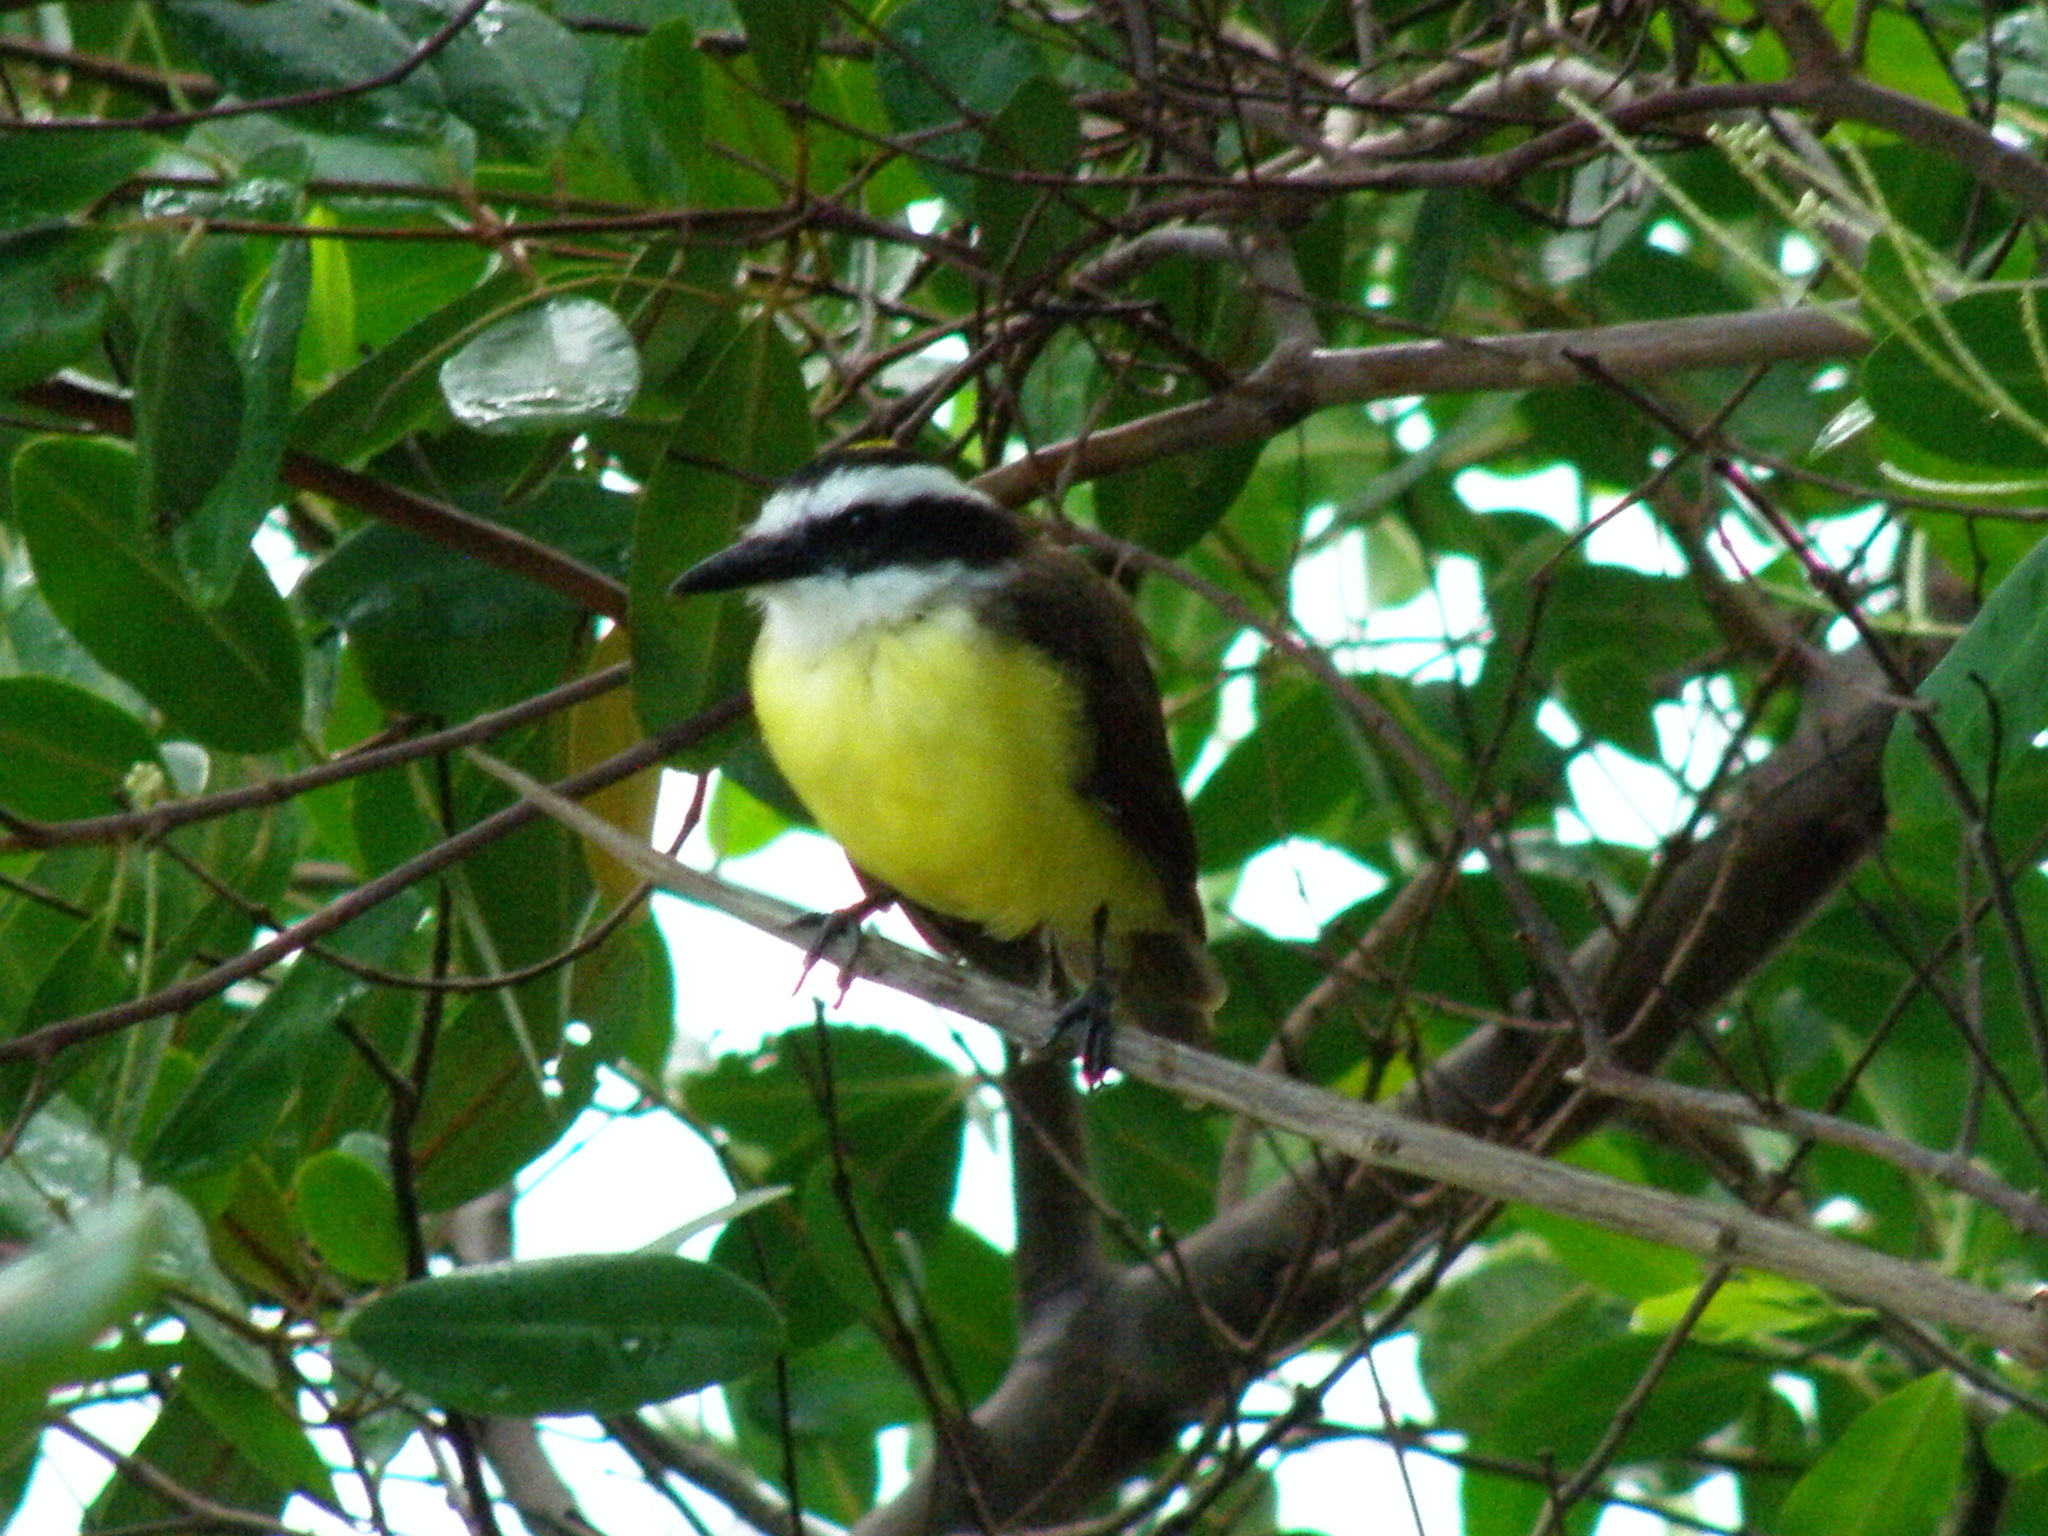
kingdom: Animalia
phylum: Chordata
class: Aves
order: Passeriformes
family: Tyrannidae
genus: Pitangus
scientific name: Pitangus sulphuratus
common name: Great kiskadee
